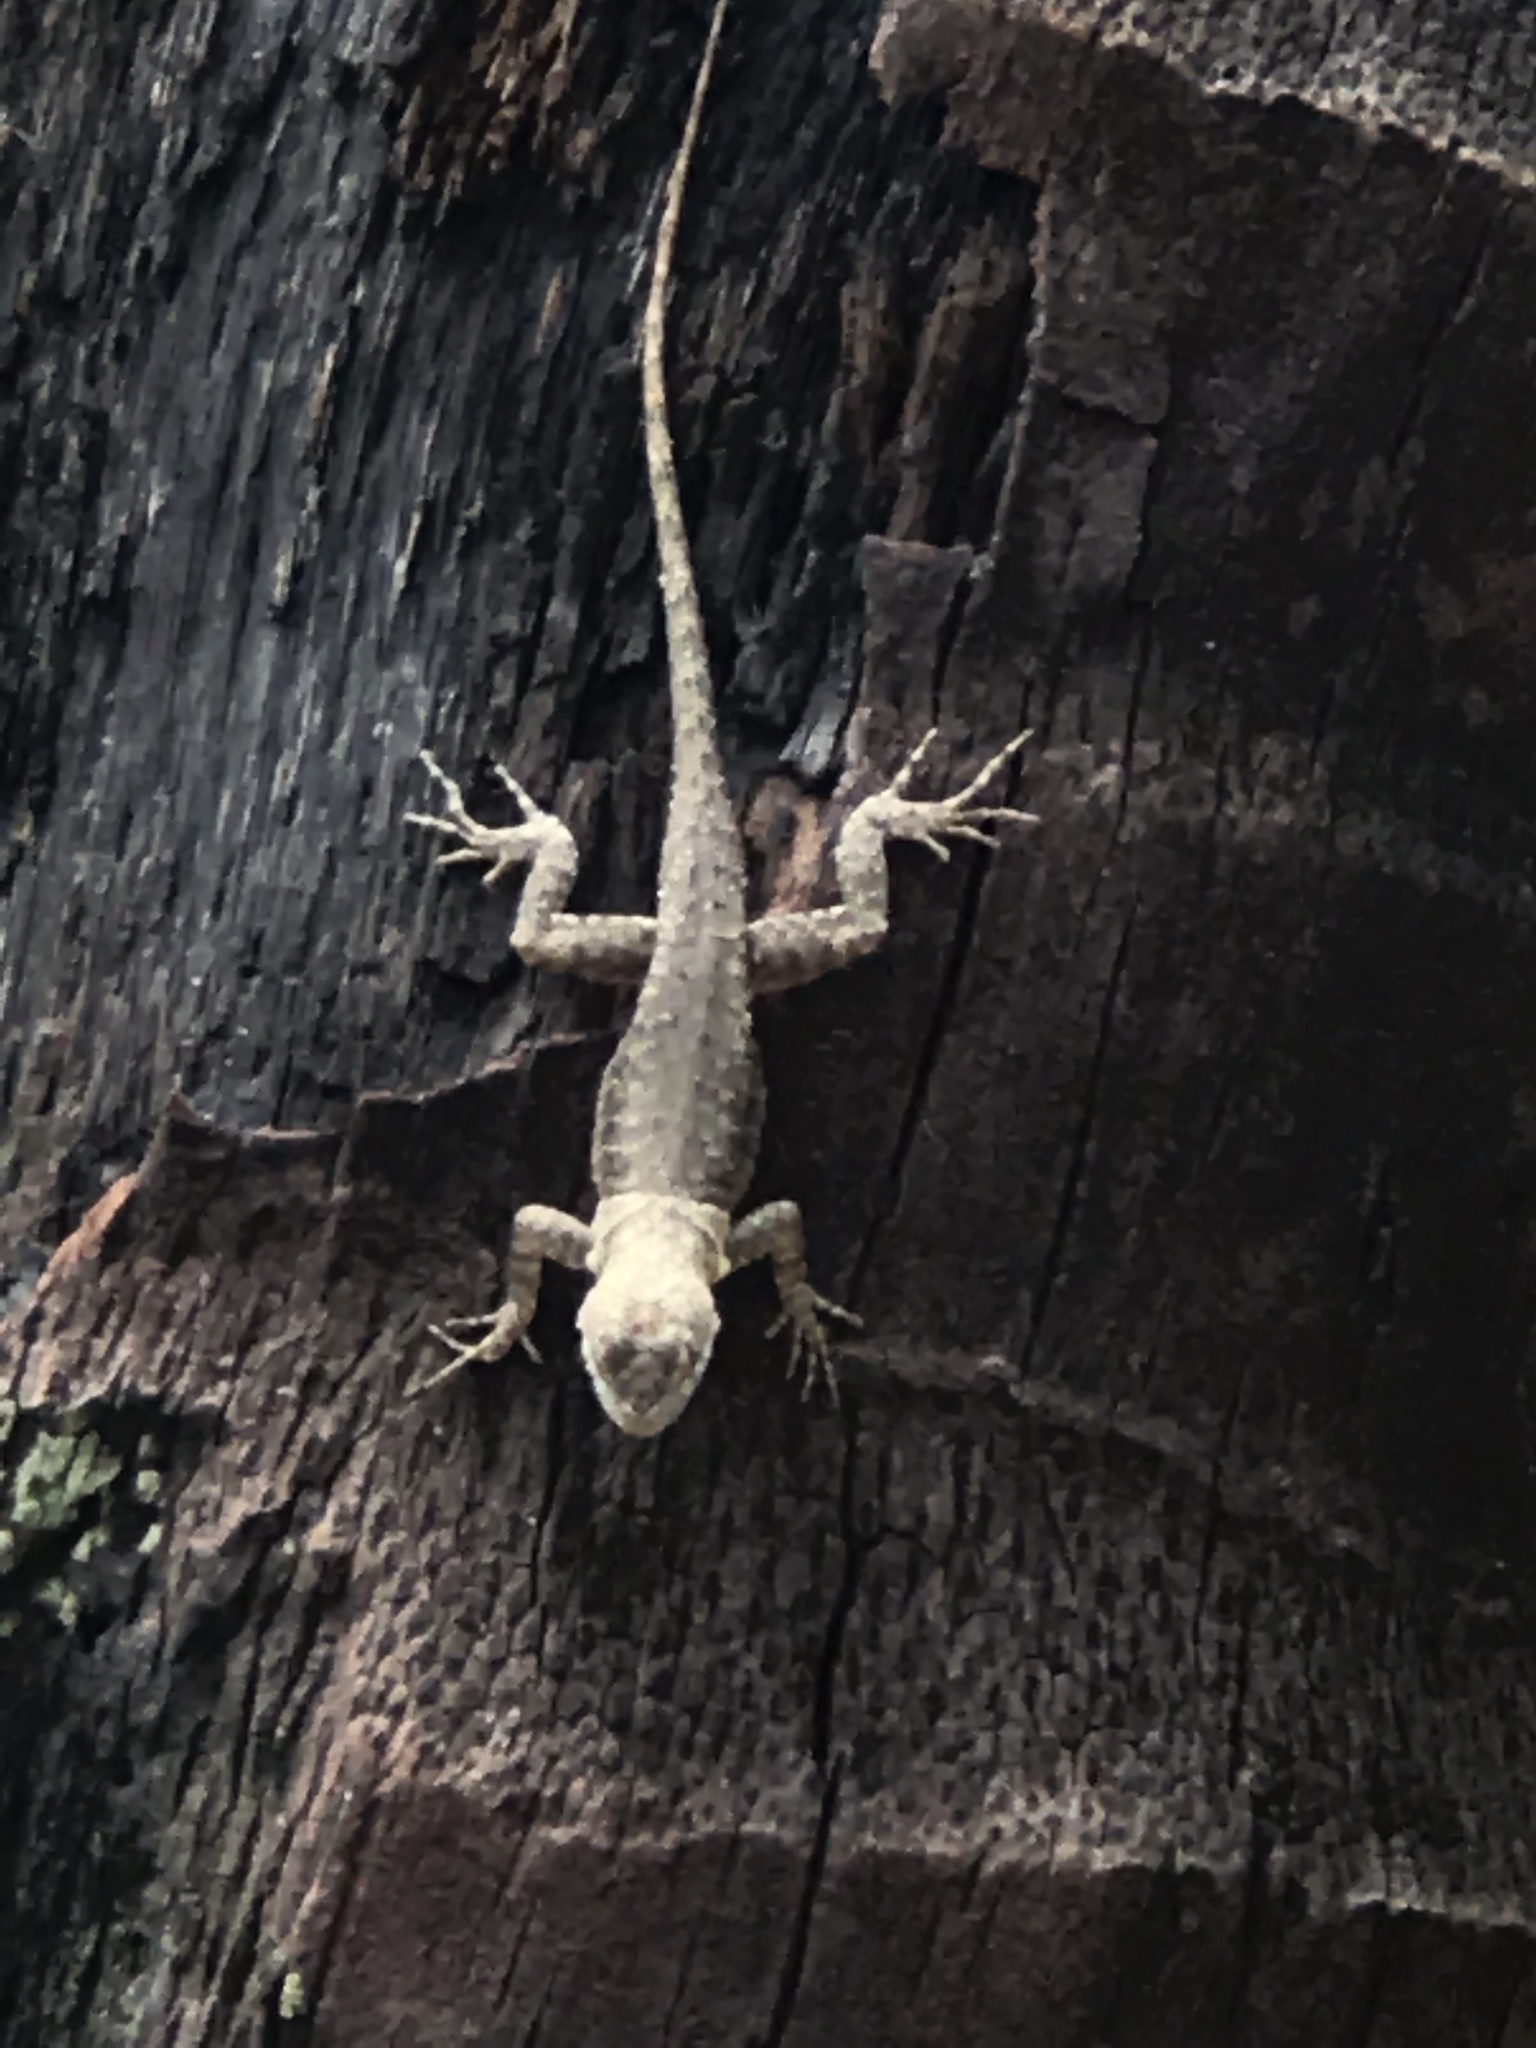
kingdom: Animalia
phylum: Chordata
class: Squamata
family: Tropiduridae
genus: Tropidurus
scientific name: Tropidurus hispidus
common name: Peters' lava lizard
